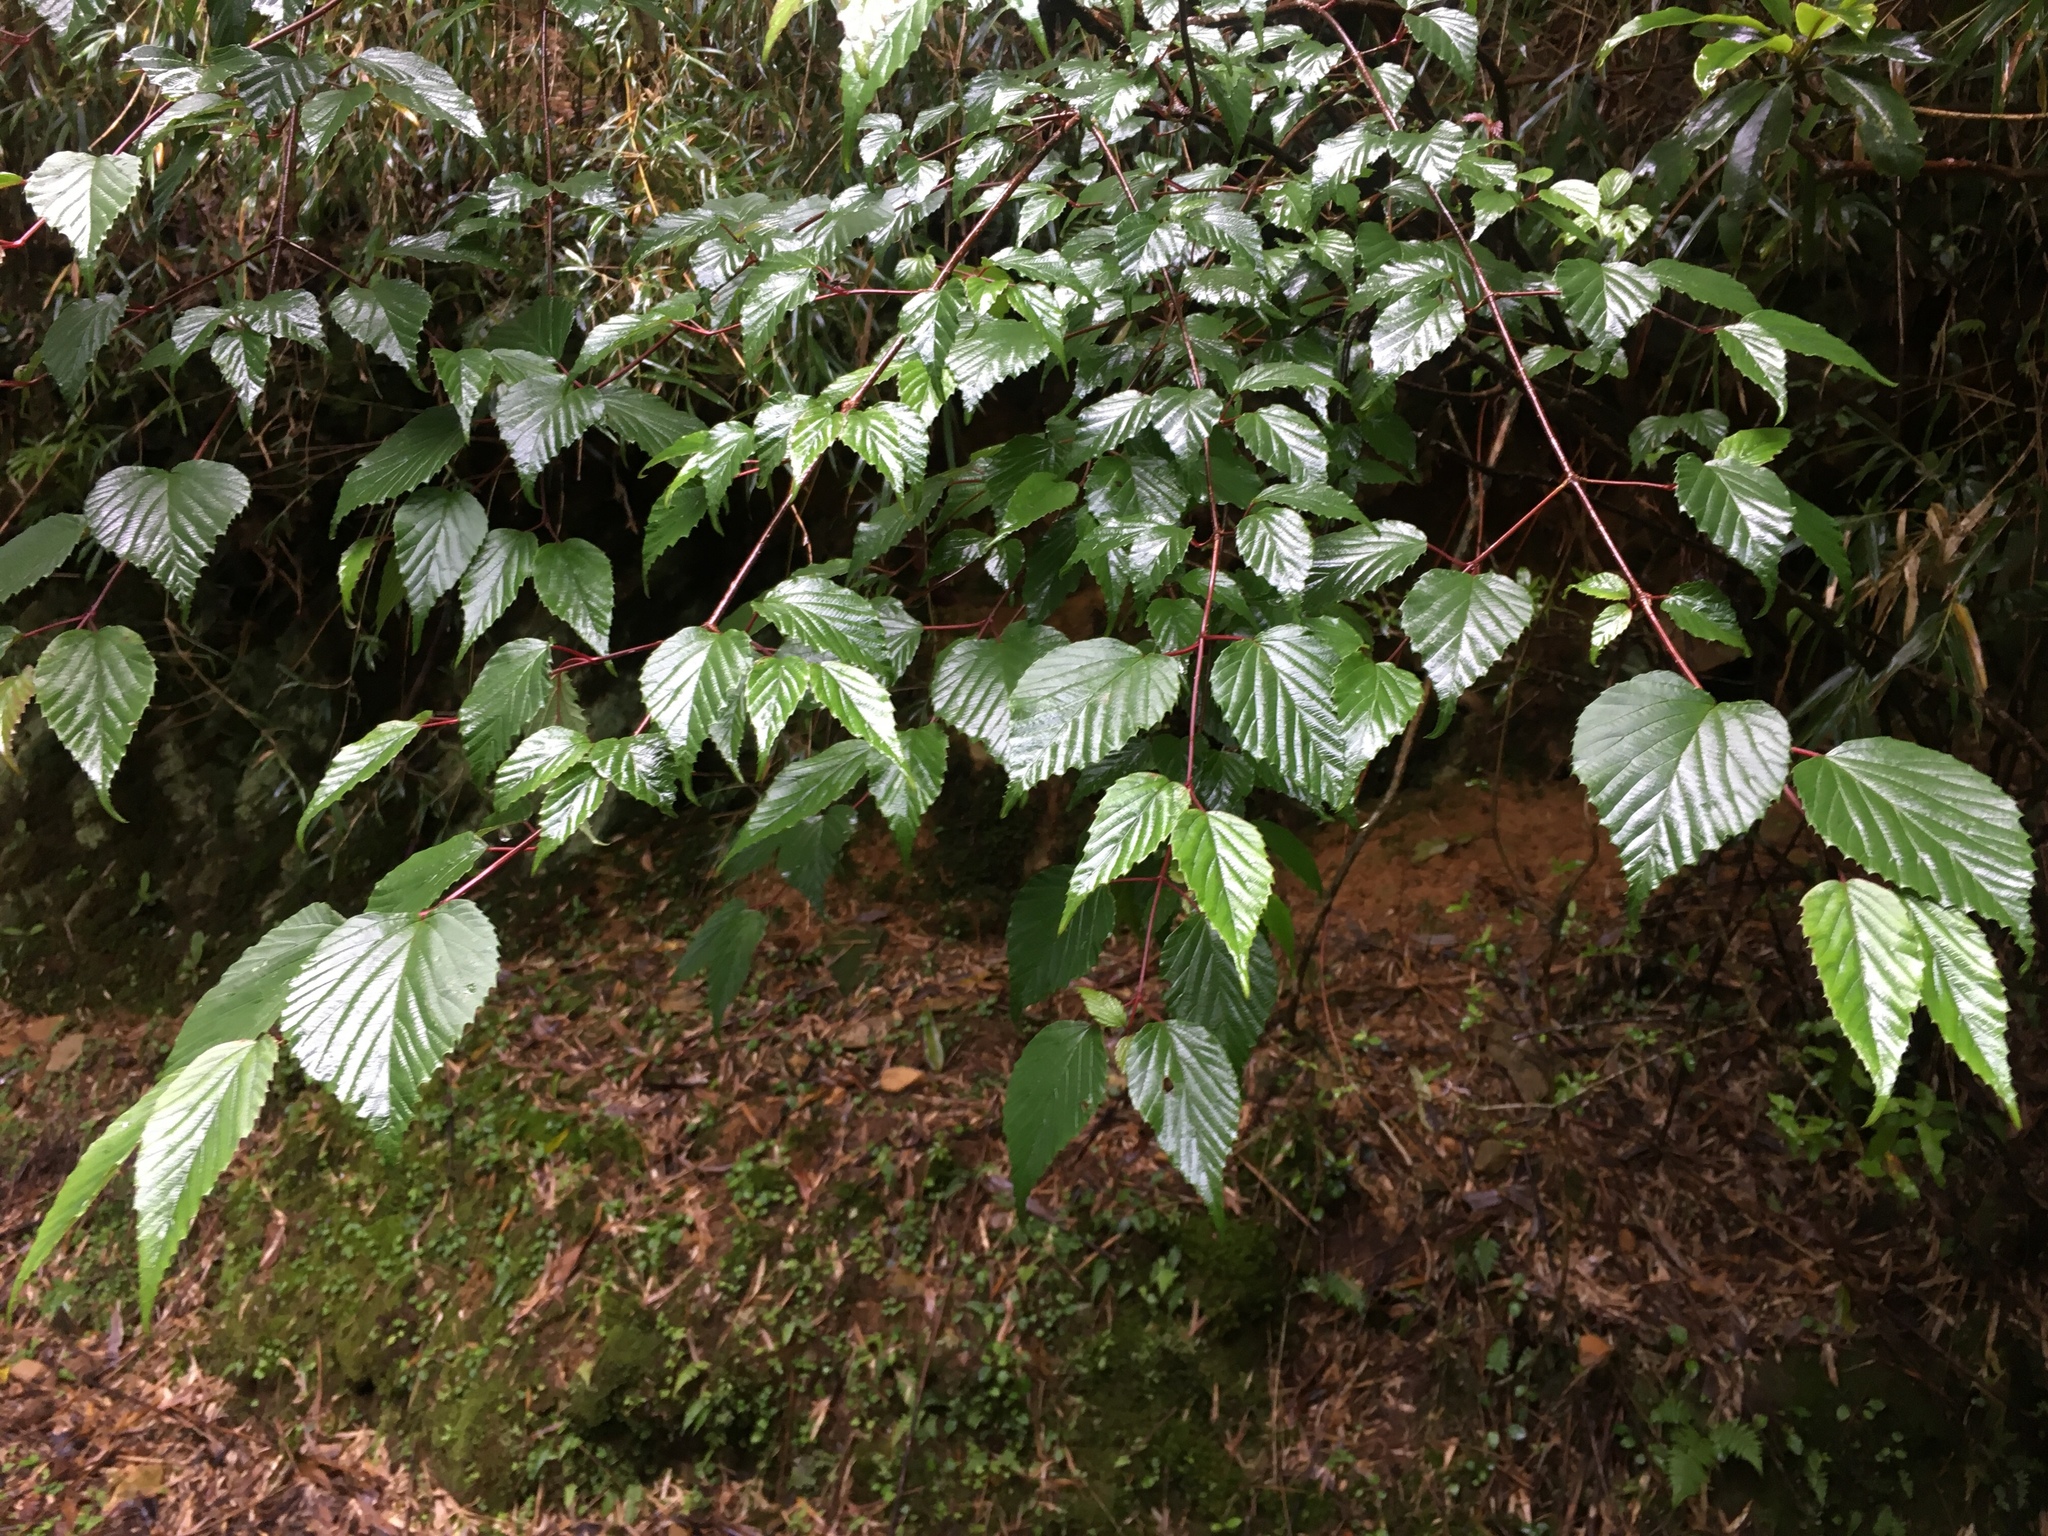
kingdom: Plantae
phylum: Tracheophyta
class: Magnoliopsida
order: Dipsacales
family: Viburnaceae
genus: Viburnum
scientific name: Viburnum betulifolium
